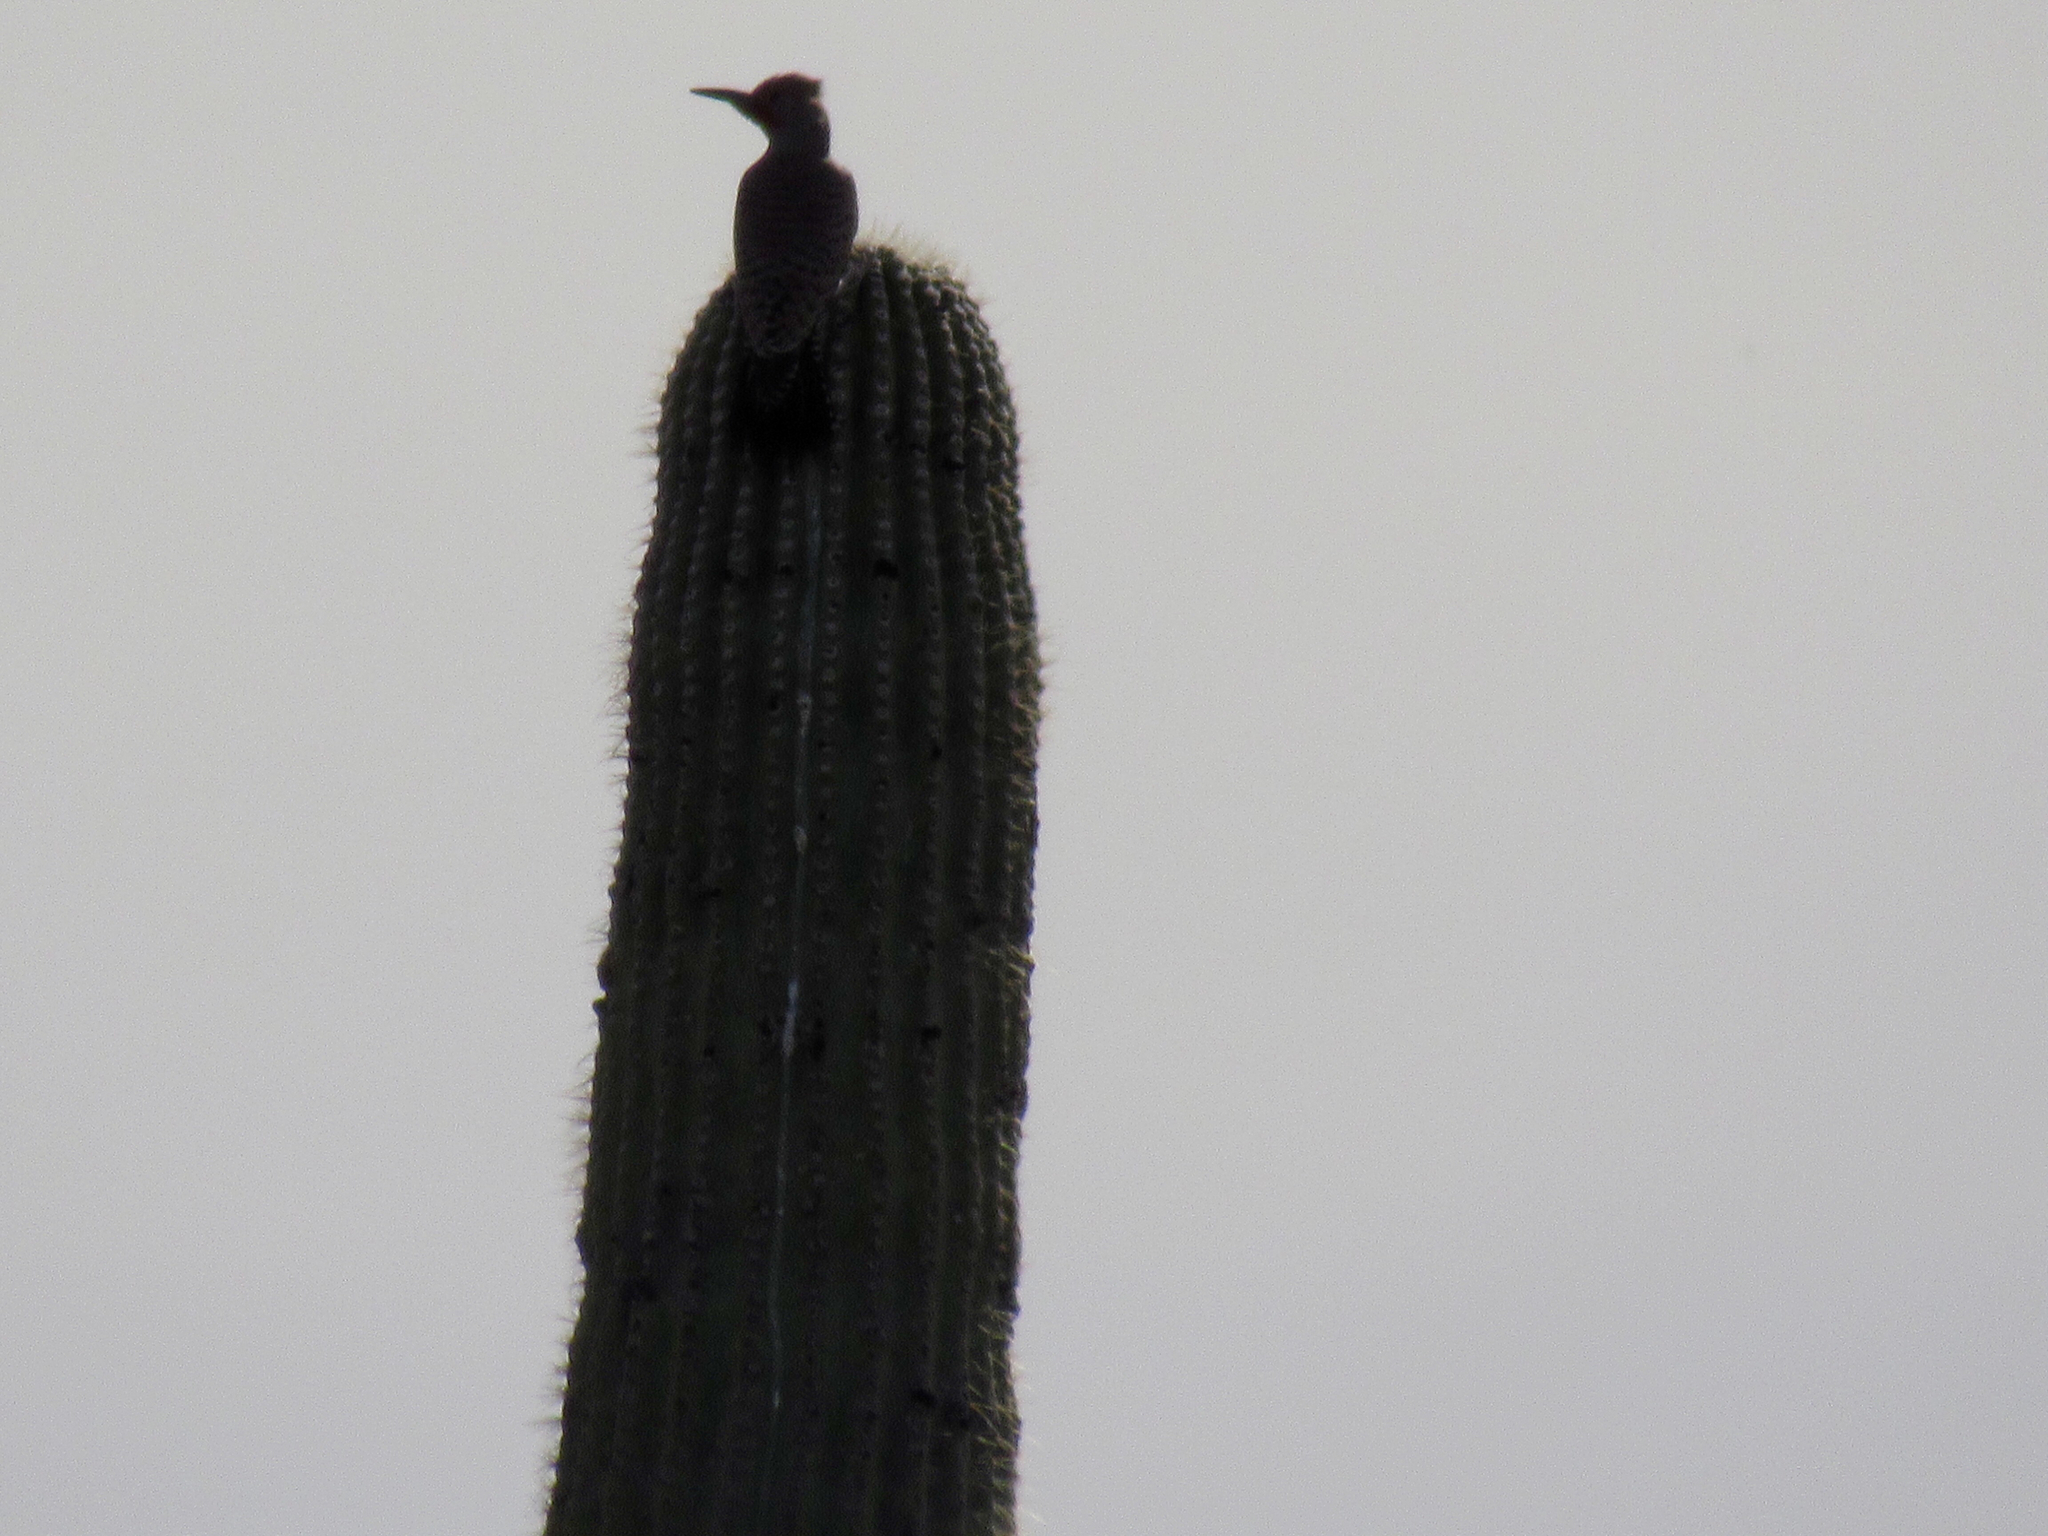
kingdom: Animalia
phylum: Chordata
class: Aves
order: Piciformes
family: Picidae
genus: Colaptes
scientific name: Colaptes chrysoides
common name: Gilded flicker
